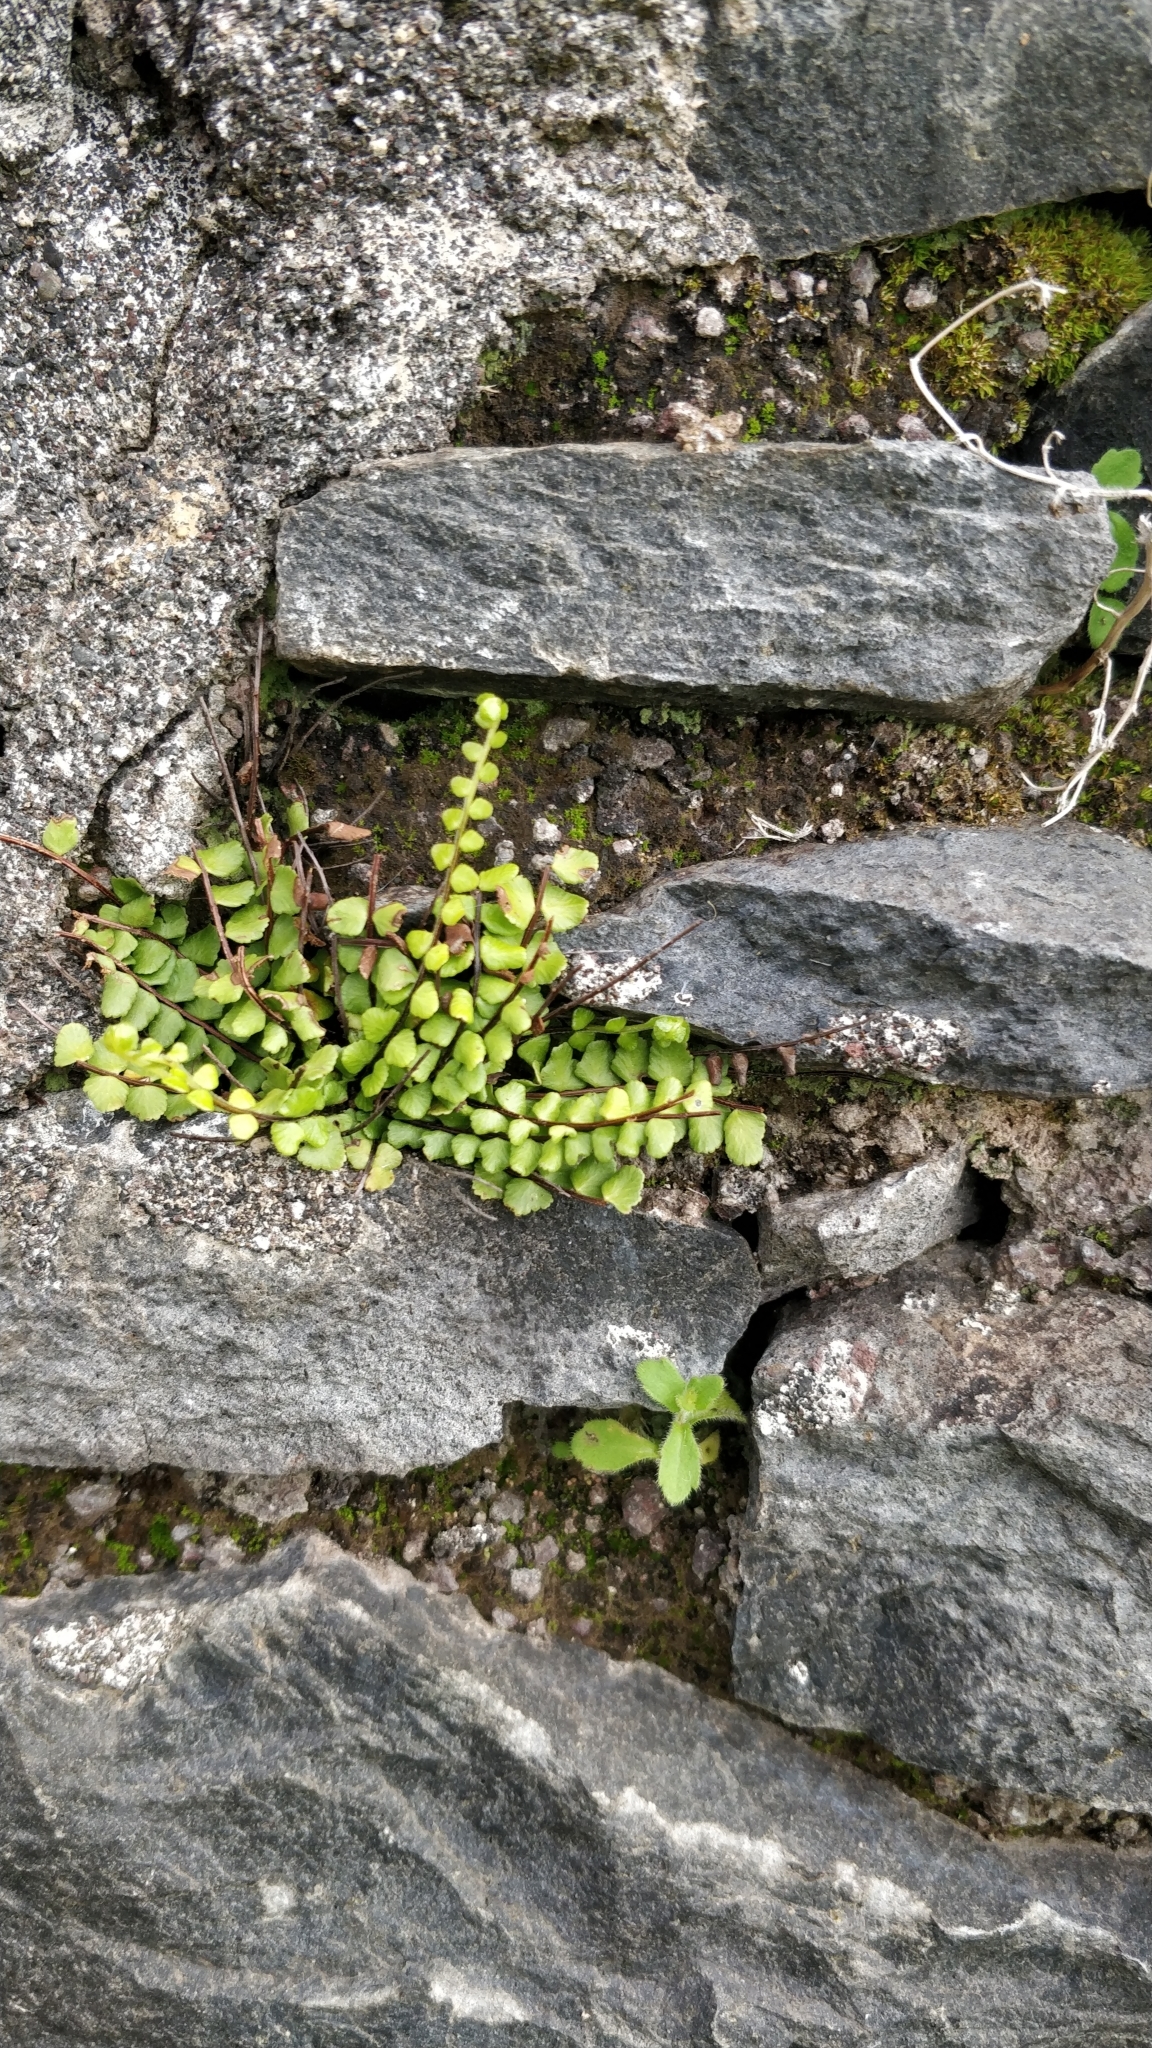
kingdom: Plantae
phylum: Tracheophyta
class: Polypodiopsida
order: Polypodiales
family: Aspleniaceae
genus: Asplenium
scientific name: Asplenium trichomanes
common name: Maidenhair spleenwort
